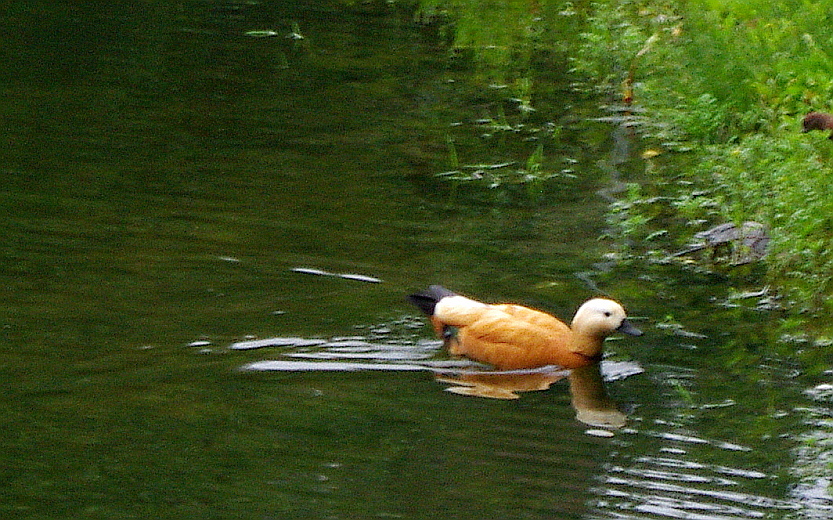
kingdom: Animalia
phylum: Chordata
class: Aves
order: Anseriformes
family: Anatidae
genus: Tadorna
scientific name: Tadorna ferruginea
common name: Ruddy shelduck
